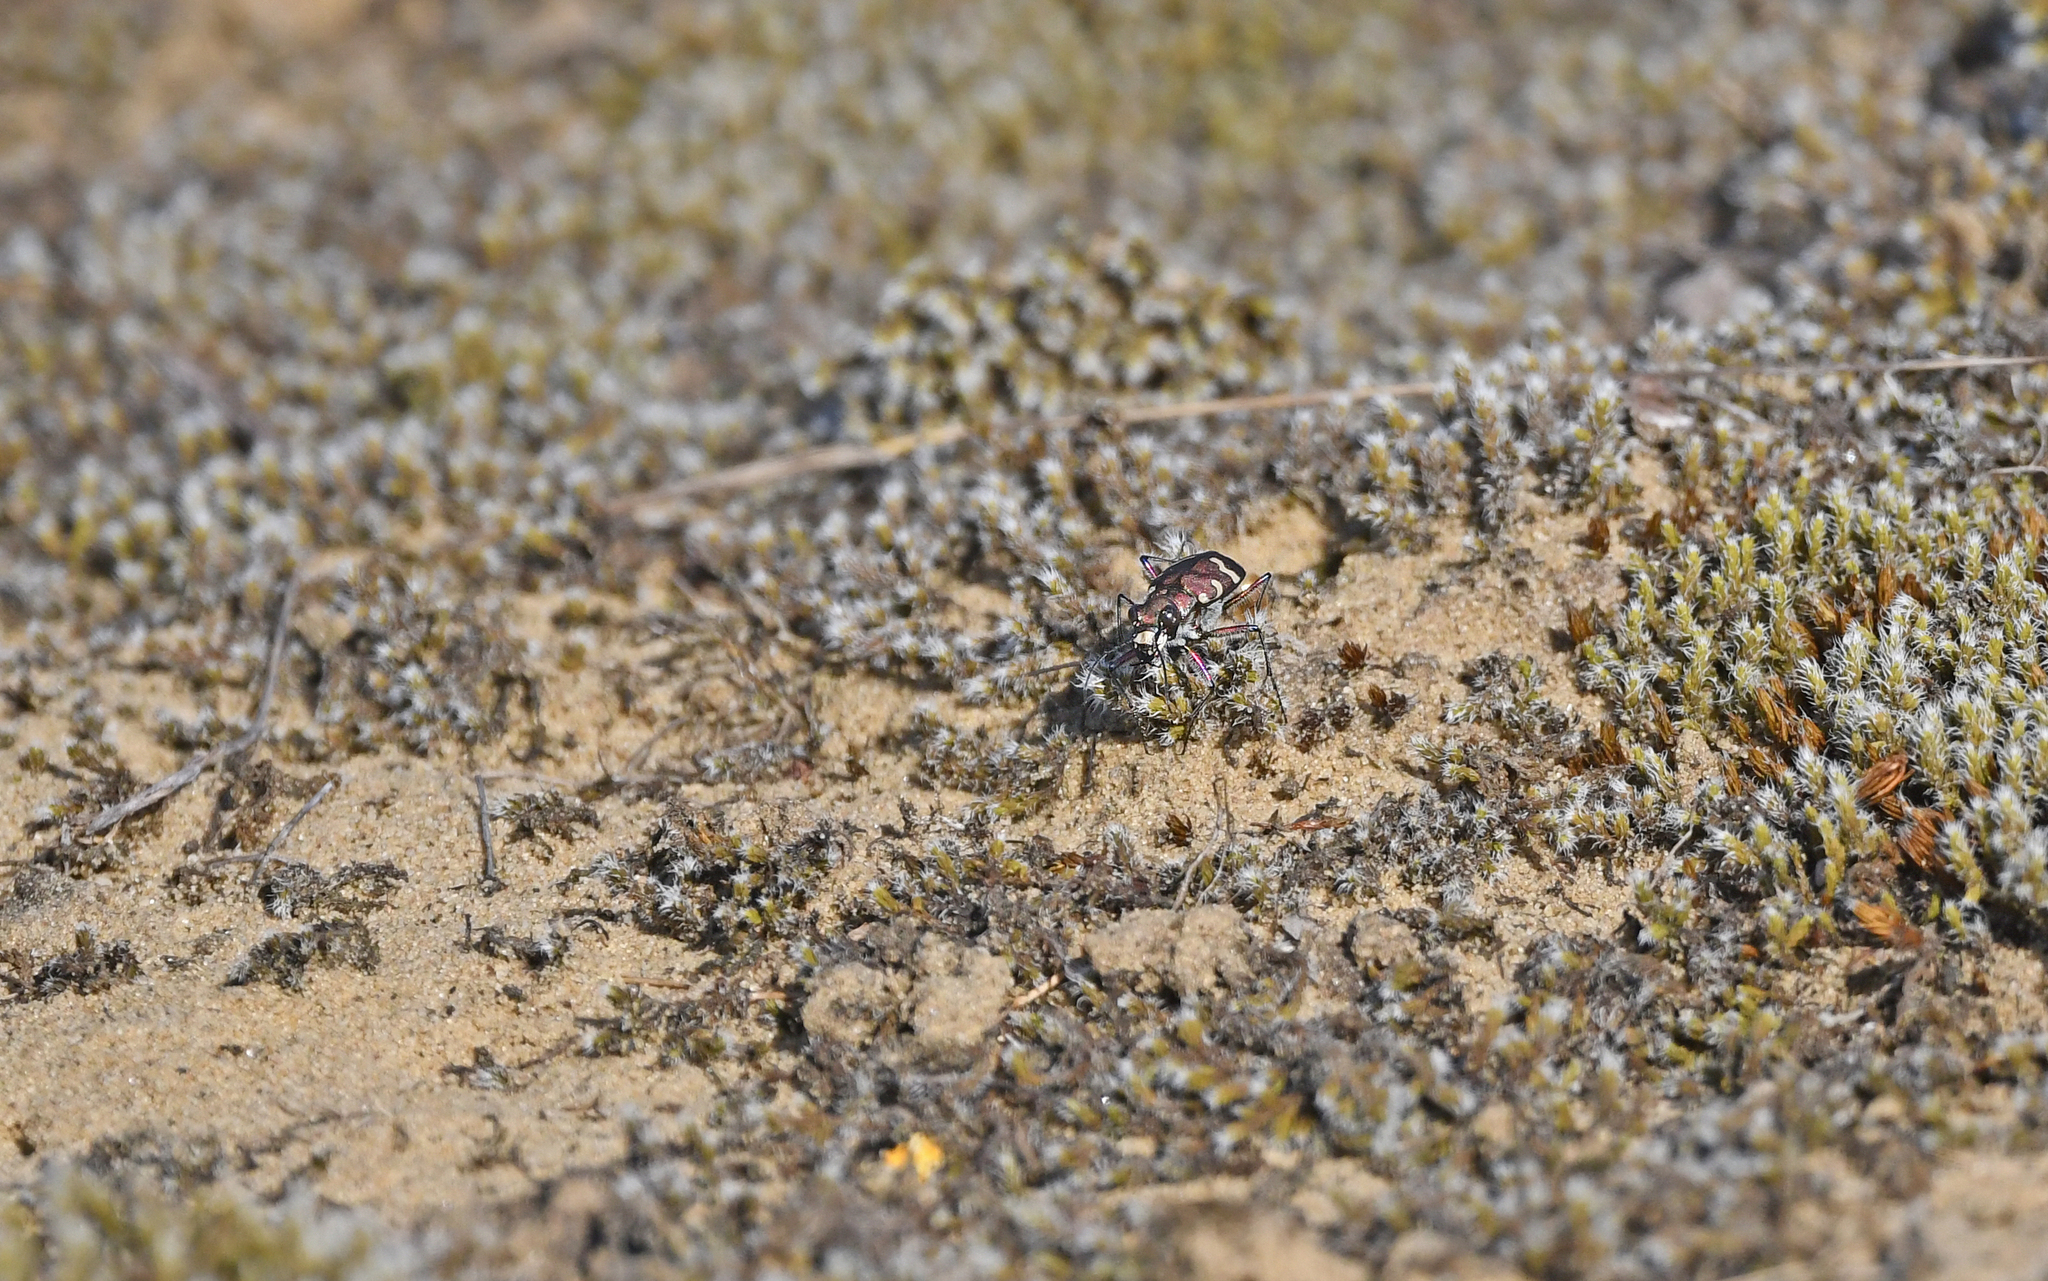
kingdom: Animalia
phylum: Arthropoda
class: Insecta
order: Coleoptera
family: Carabidae
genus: Cicindela
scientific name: Cicindela hybrida
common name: Northern dune tiger beetle
